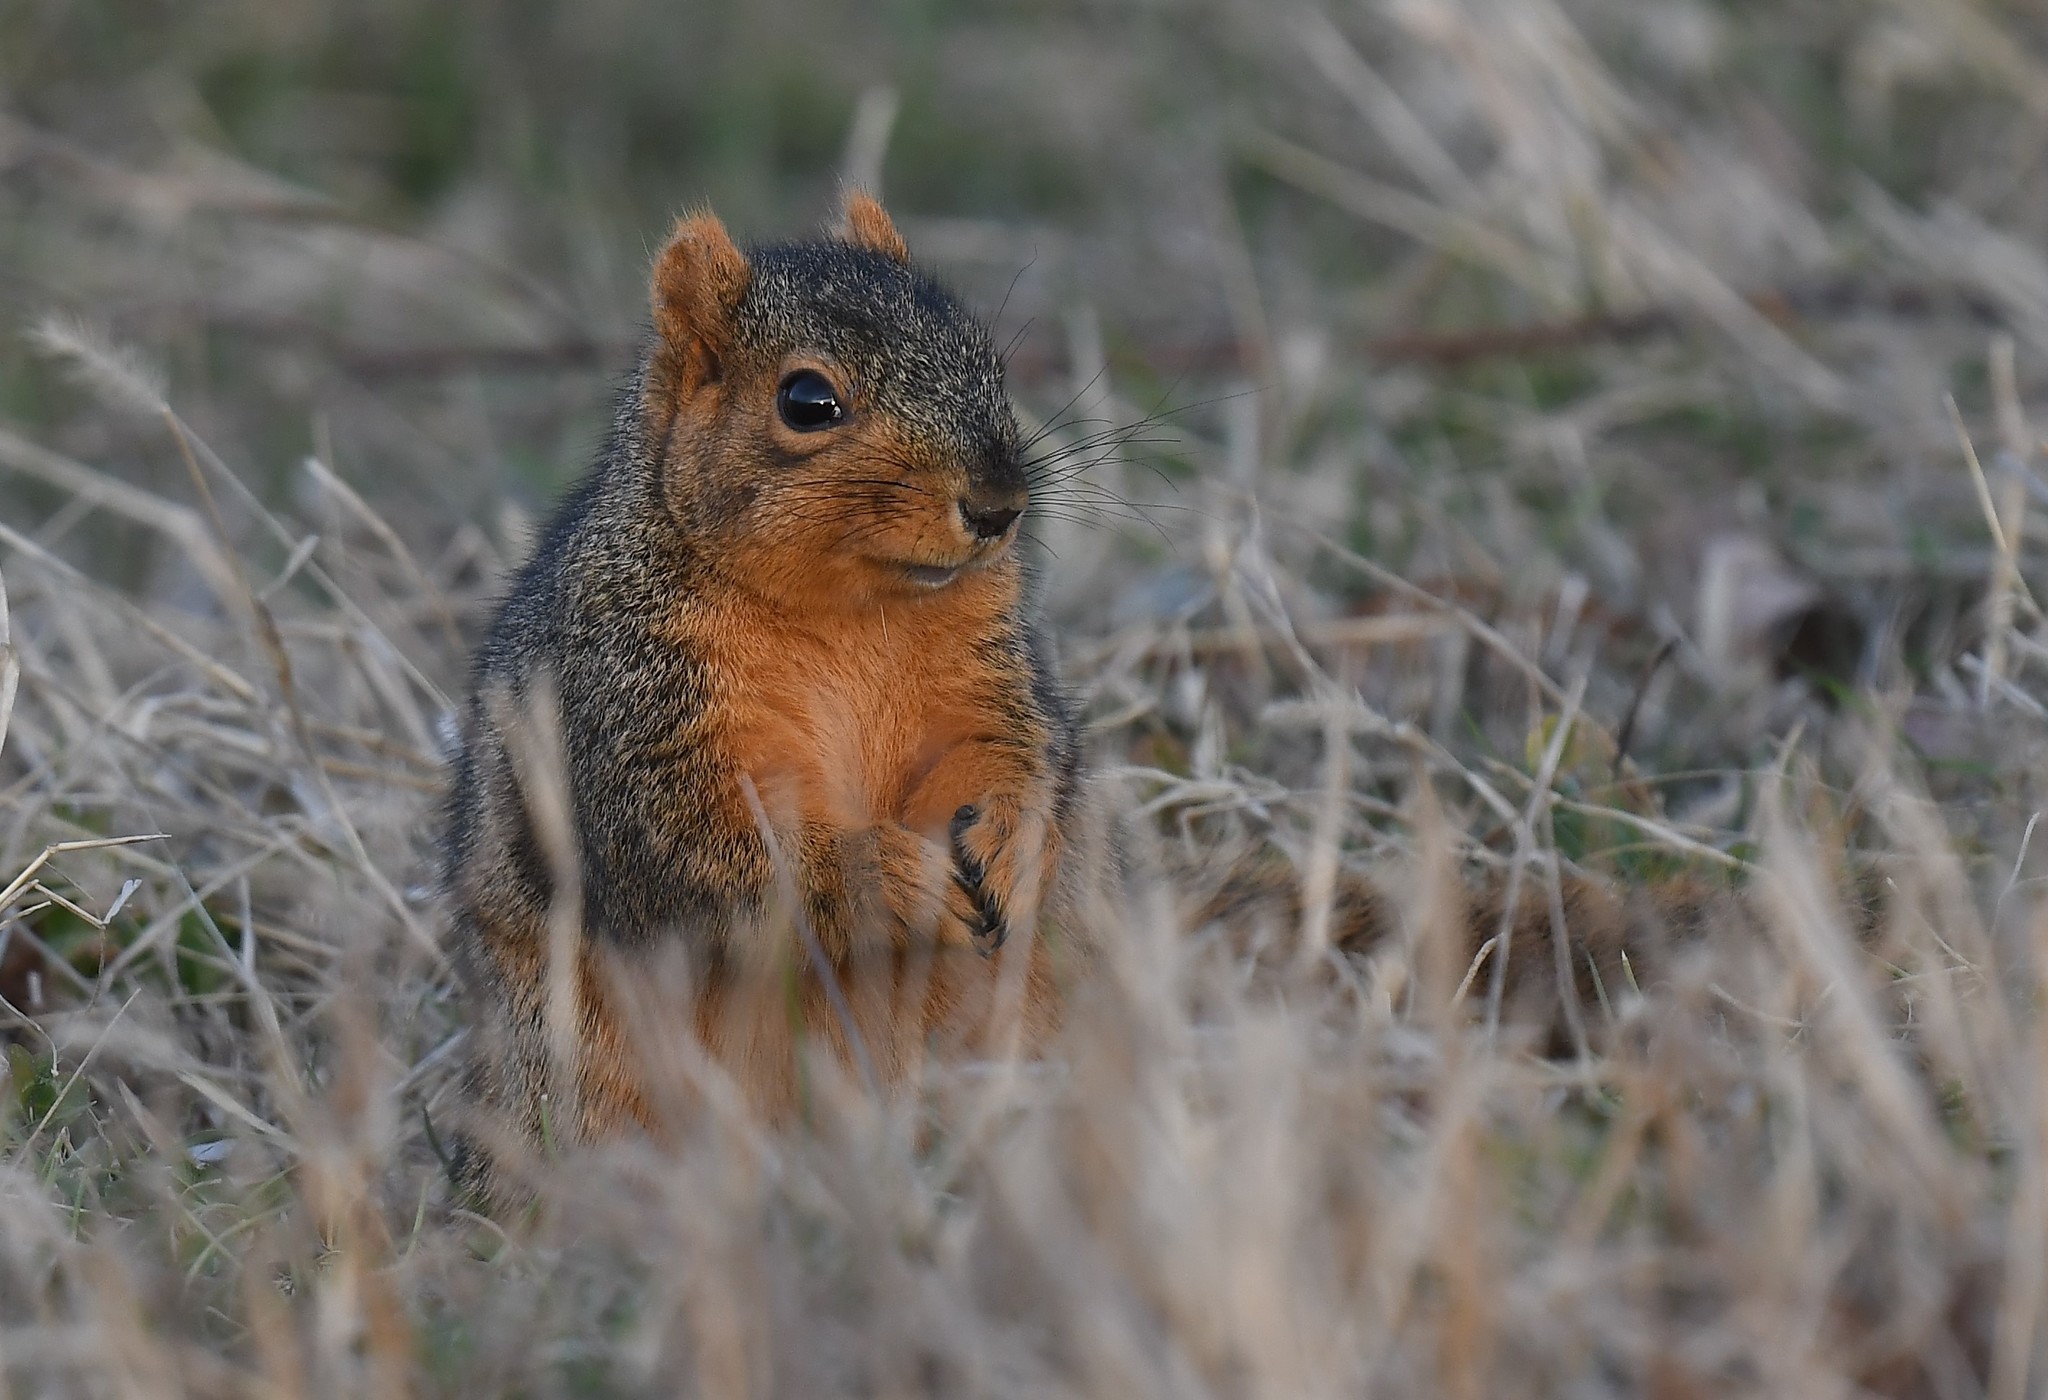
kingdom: Animalia
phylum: Chordata
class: Mammalia
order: Rodentia
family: Sciuridae
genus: Sciurus
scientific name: Sciurus niger
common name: Fox squirrel
